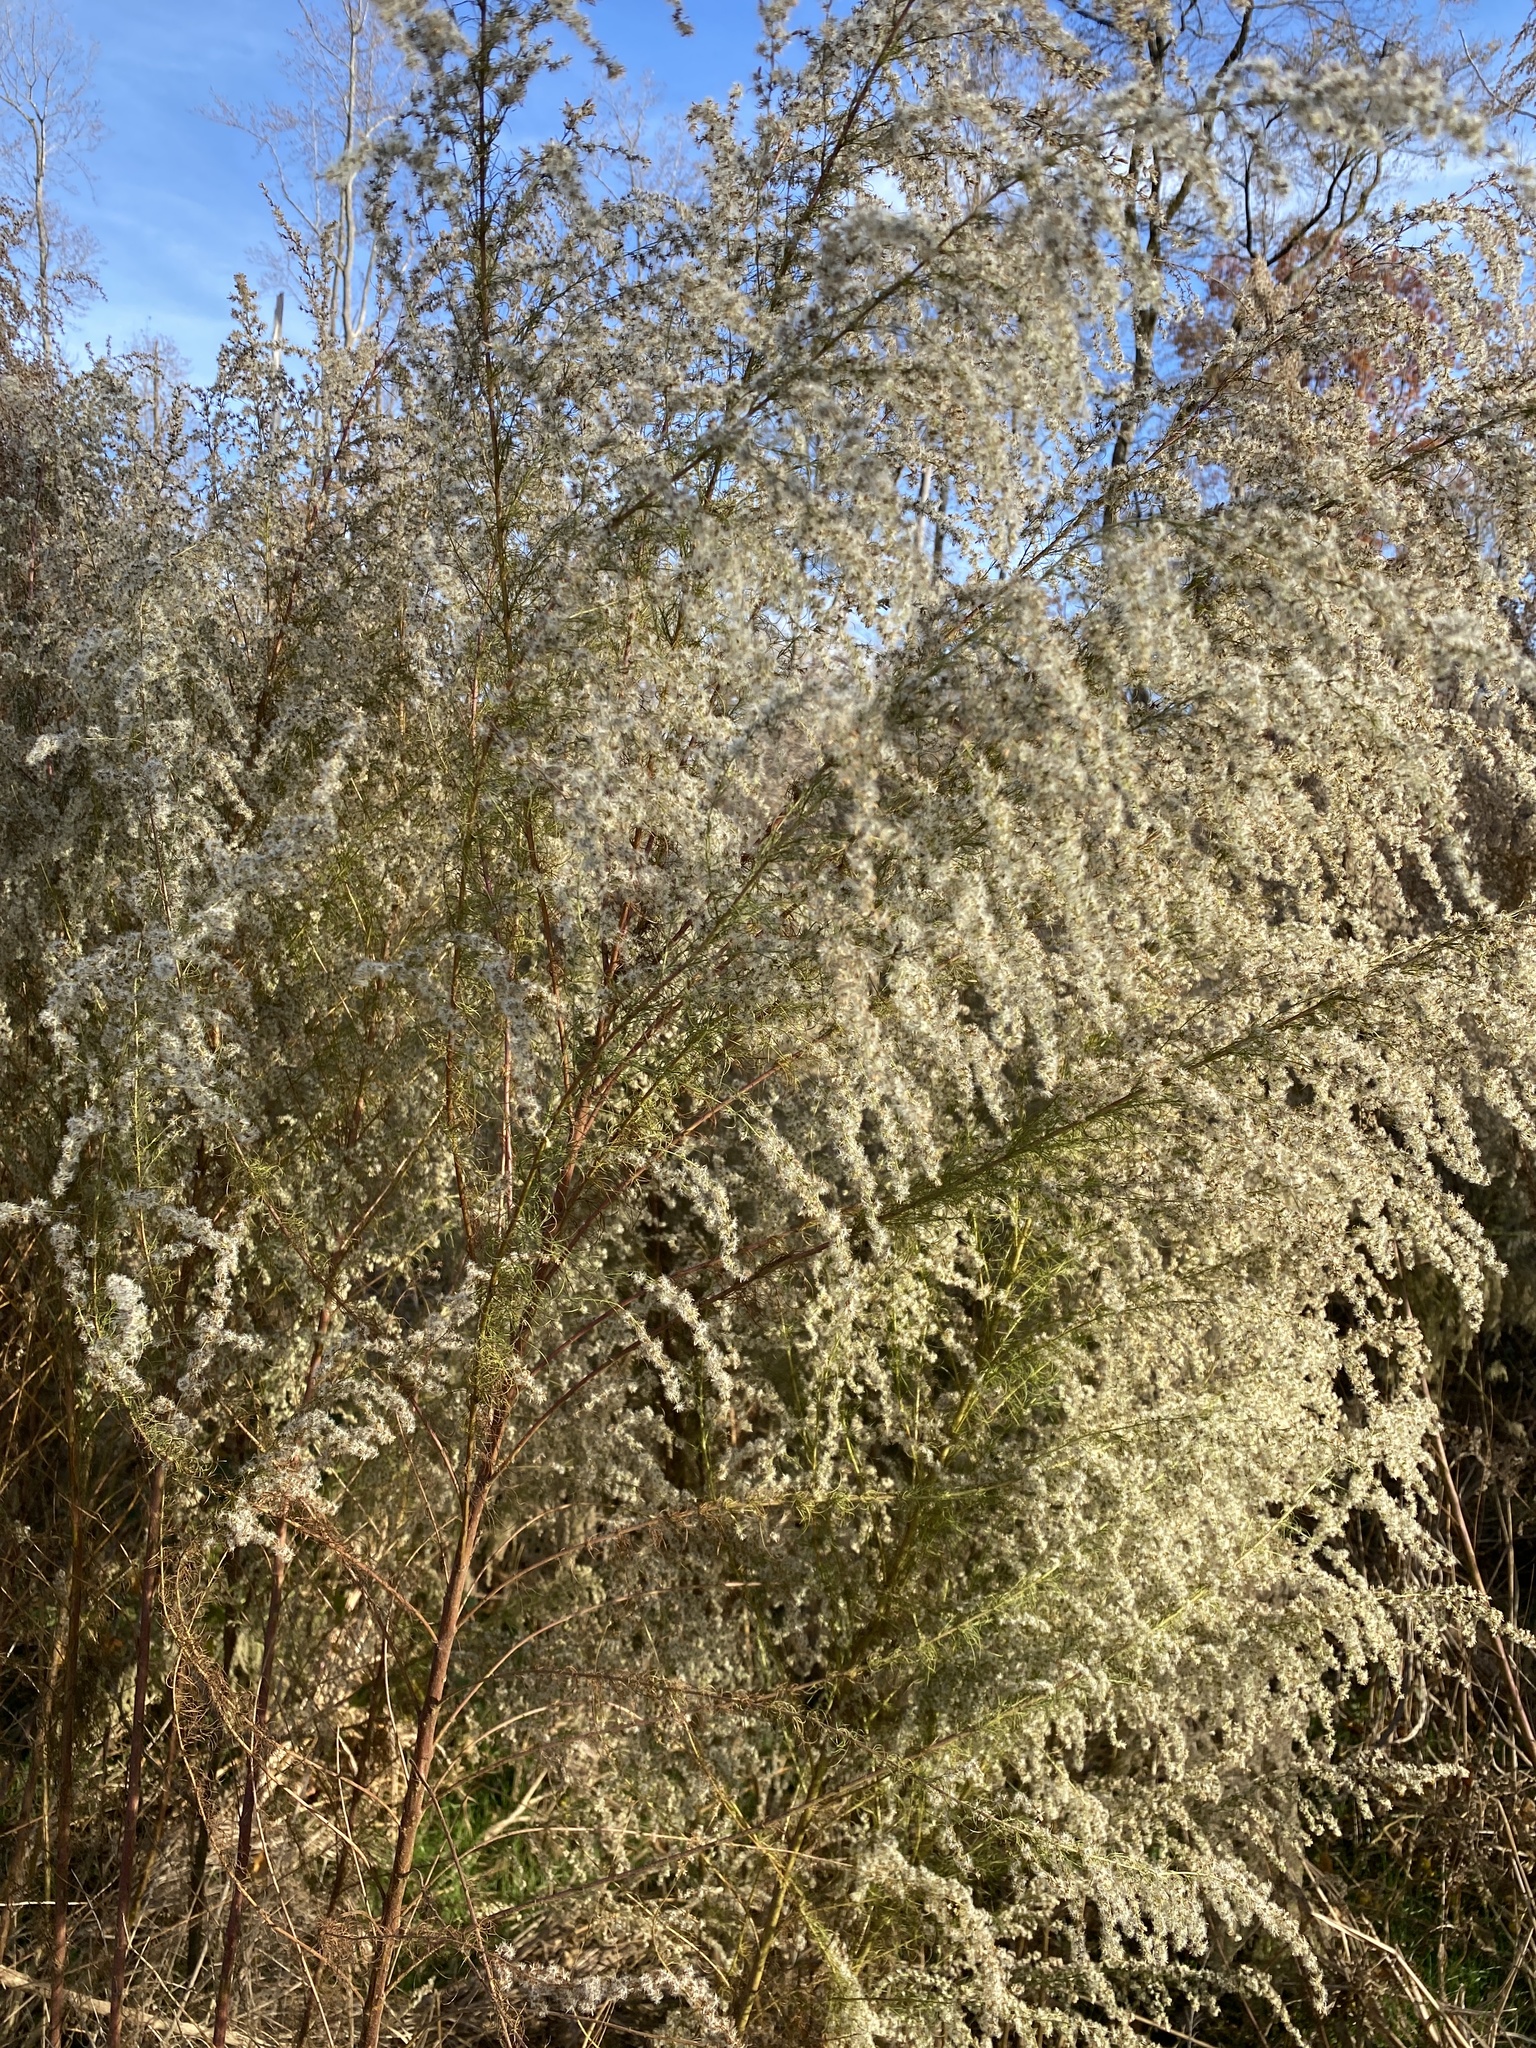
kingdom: Plantae
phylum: Tracheophyta
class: Magnoliopsida
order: Asterales
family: Asteraceae
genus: Eupatorium
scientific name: Eupatorium capillifolium
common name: Dog-fennel
